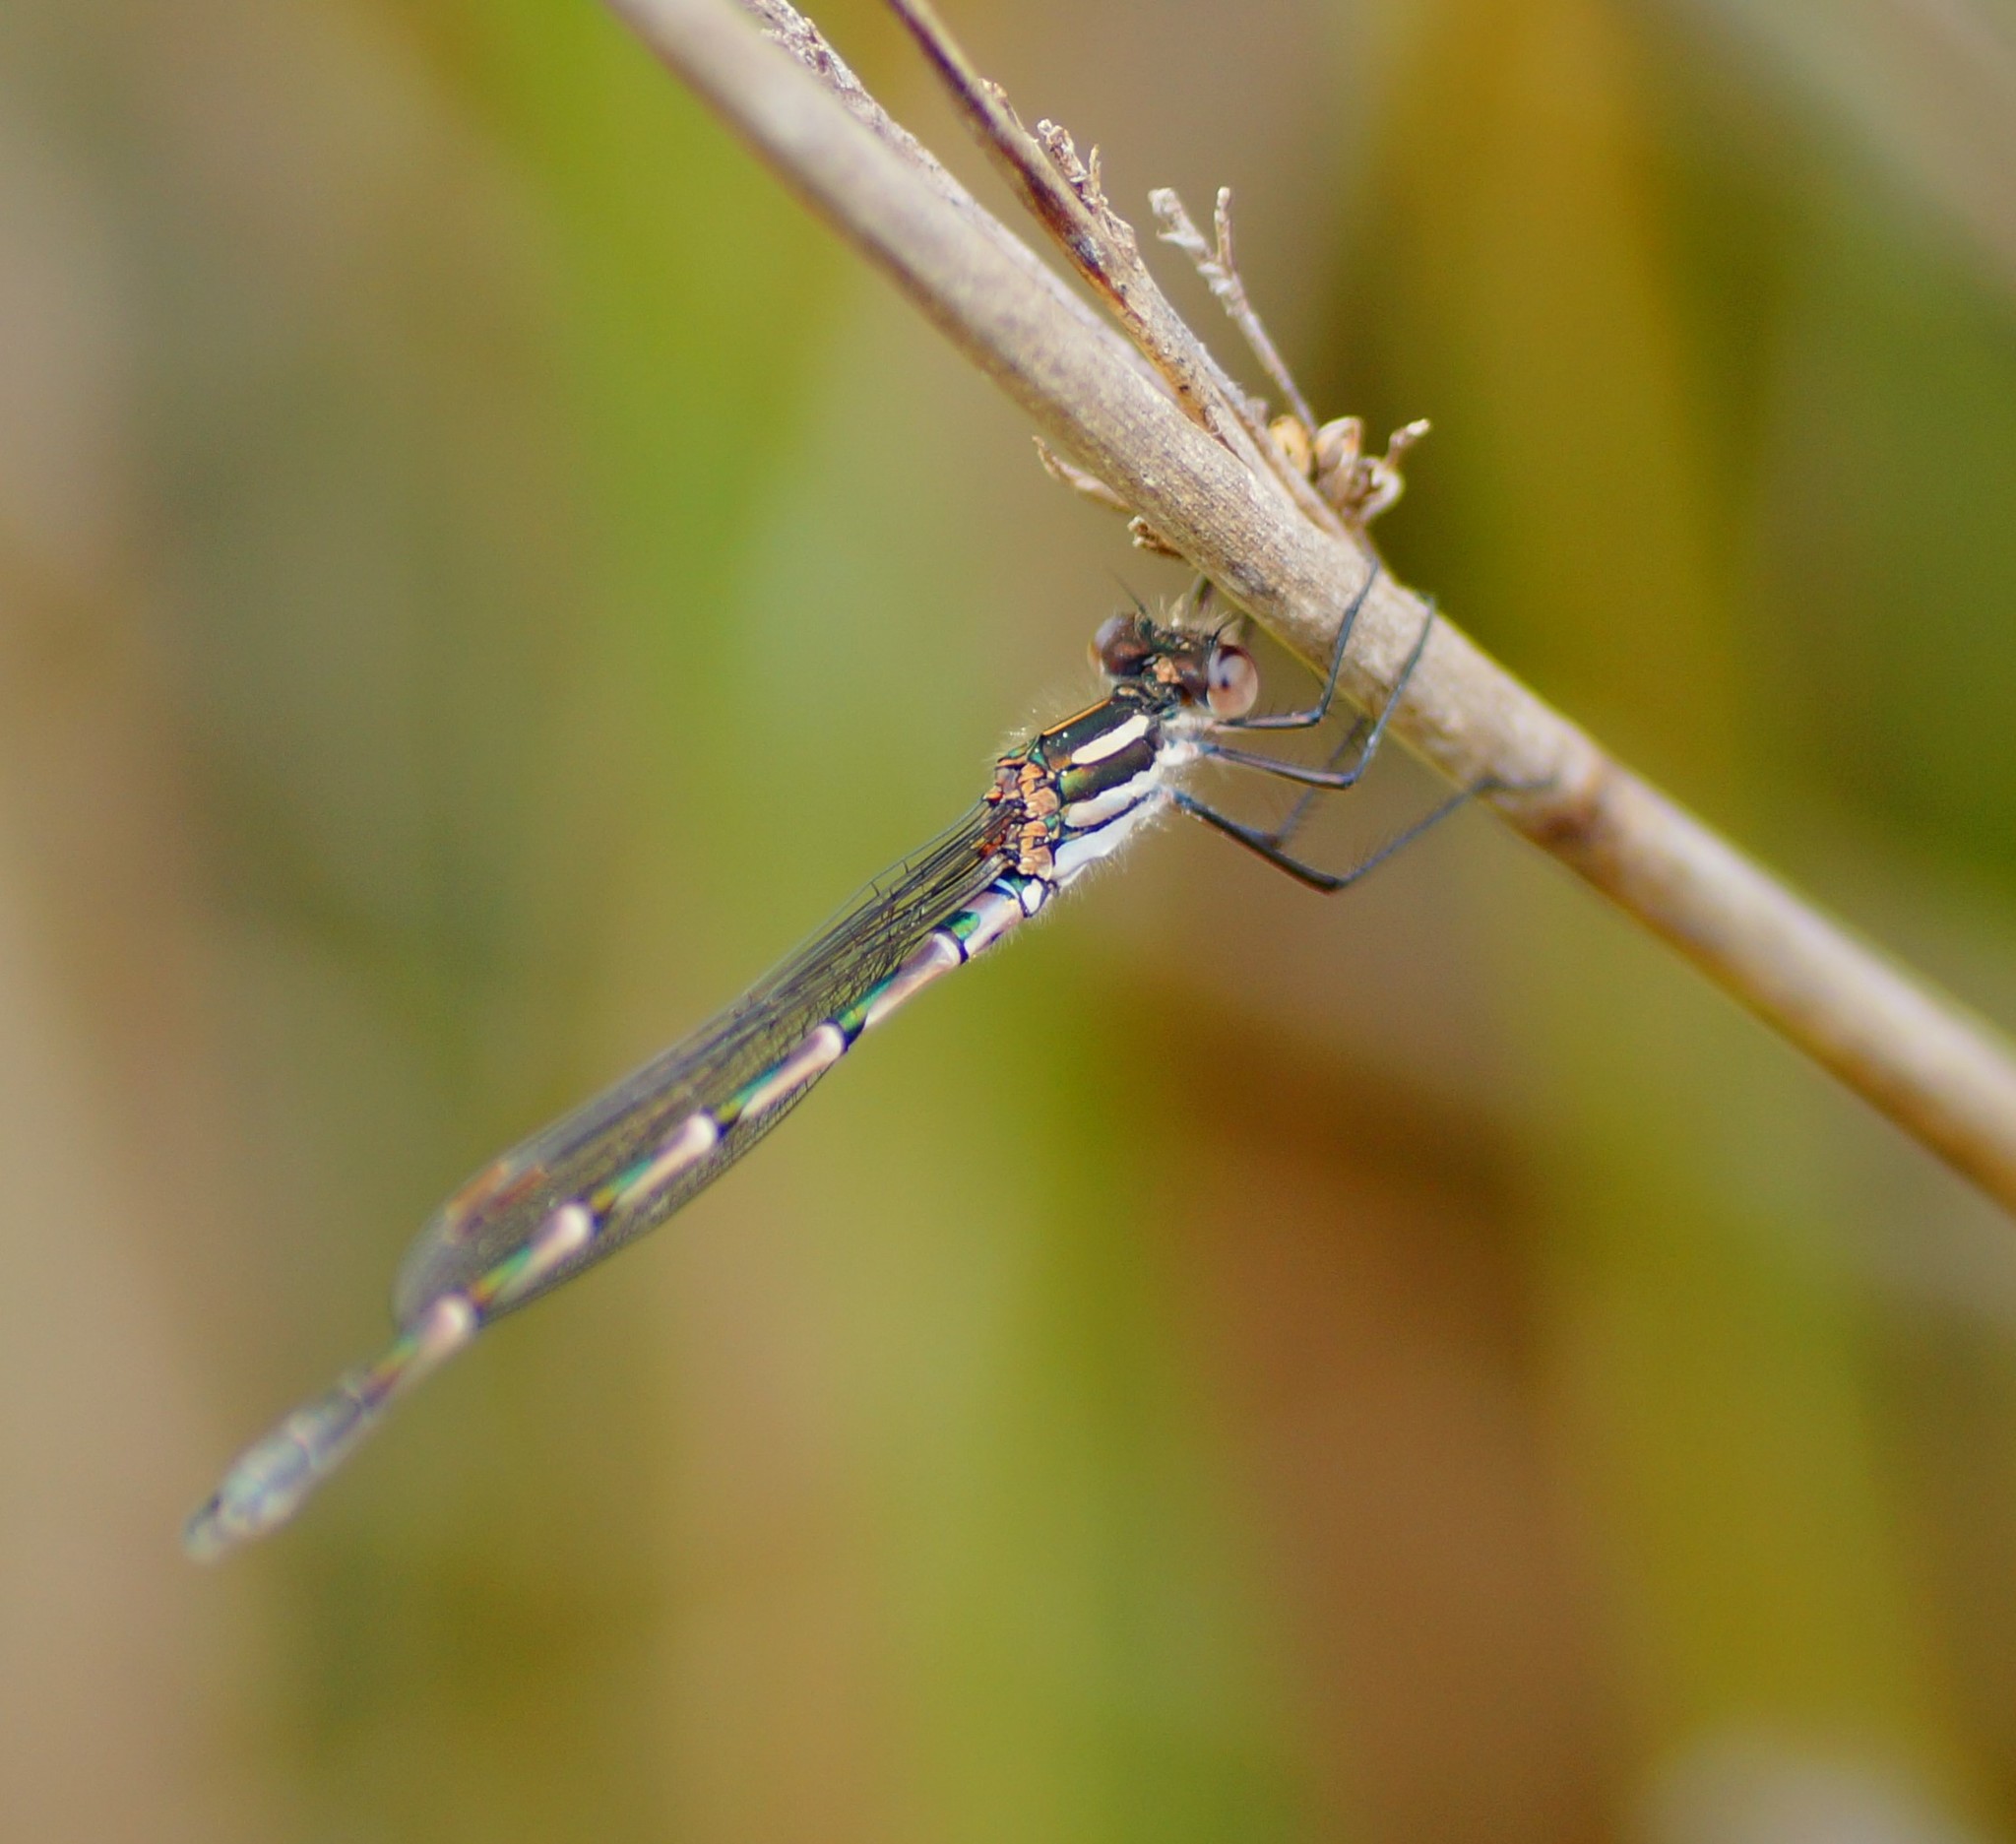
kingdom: Animalia
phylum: Arthropoda
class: Insecta
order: Odonata
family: Lestidae
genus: Austrolestes
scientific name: Austrolestes leda
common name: Wandering ringtail
